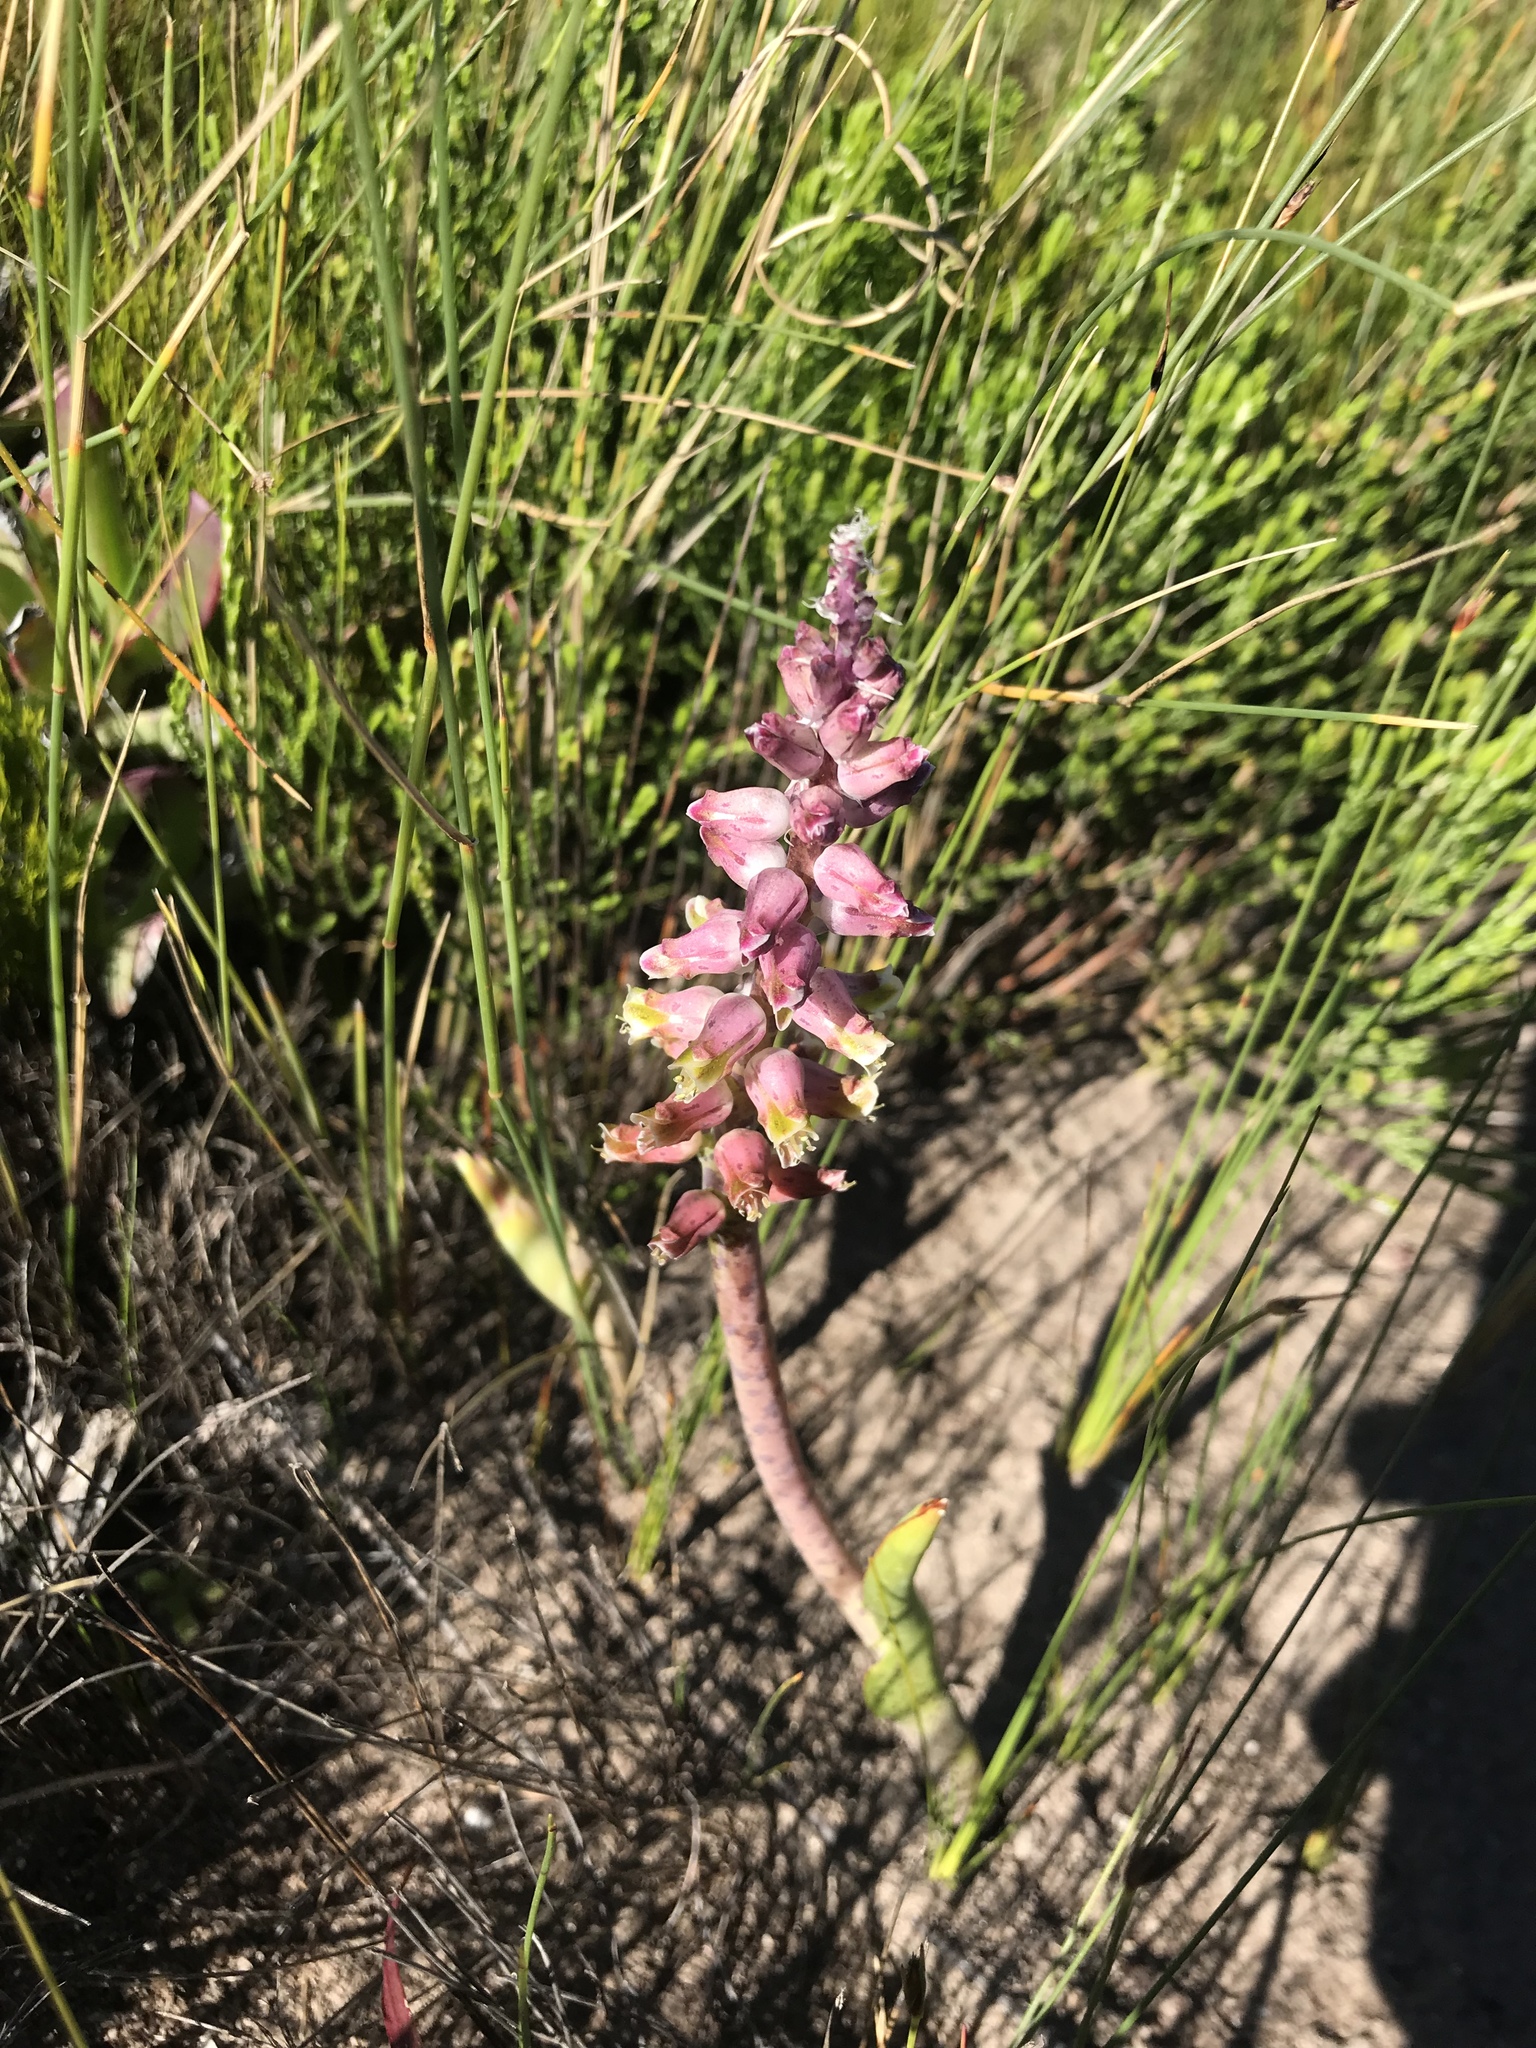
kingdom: Plantae
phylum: Tracheophyta
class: Liliopsida
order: Asparagales
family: Asparagaceae
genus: Lachenalia
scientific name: Lachenalia variegata
